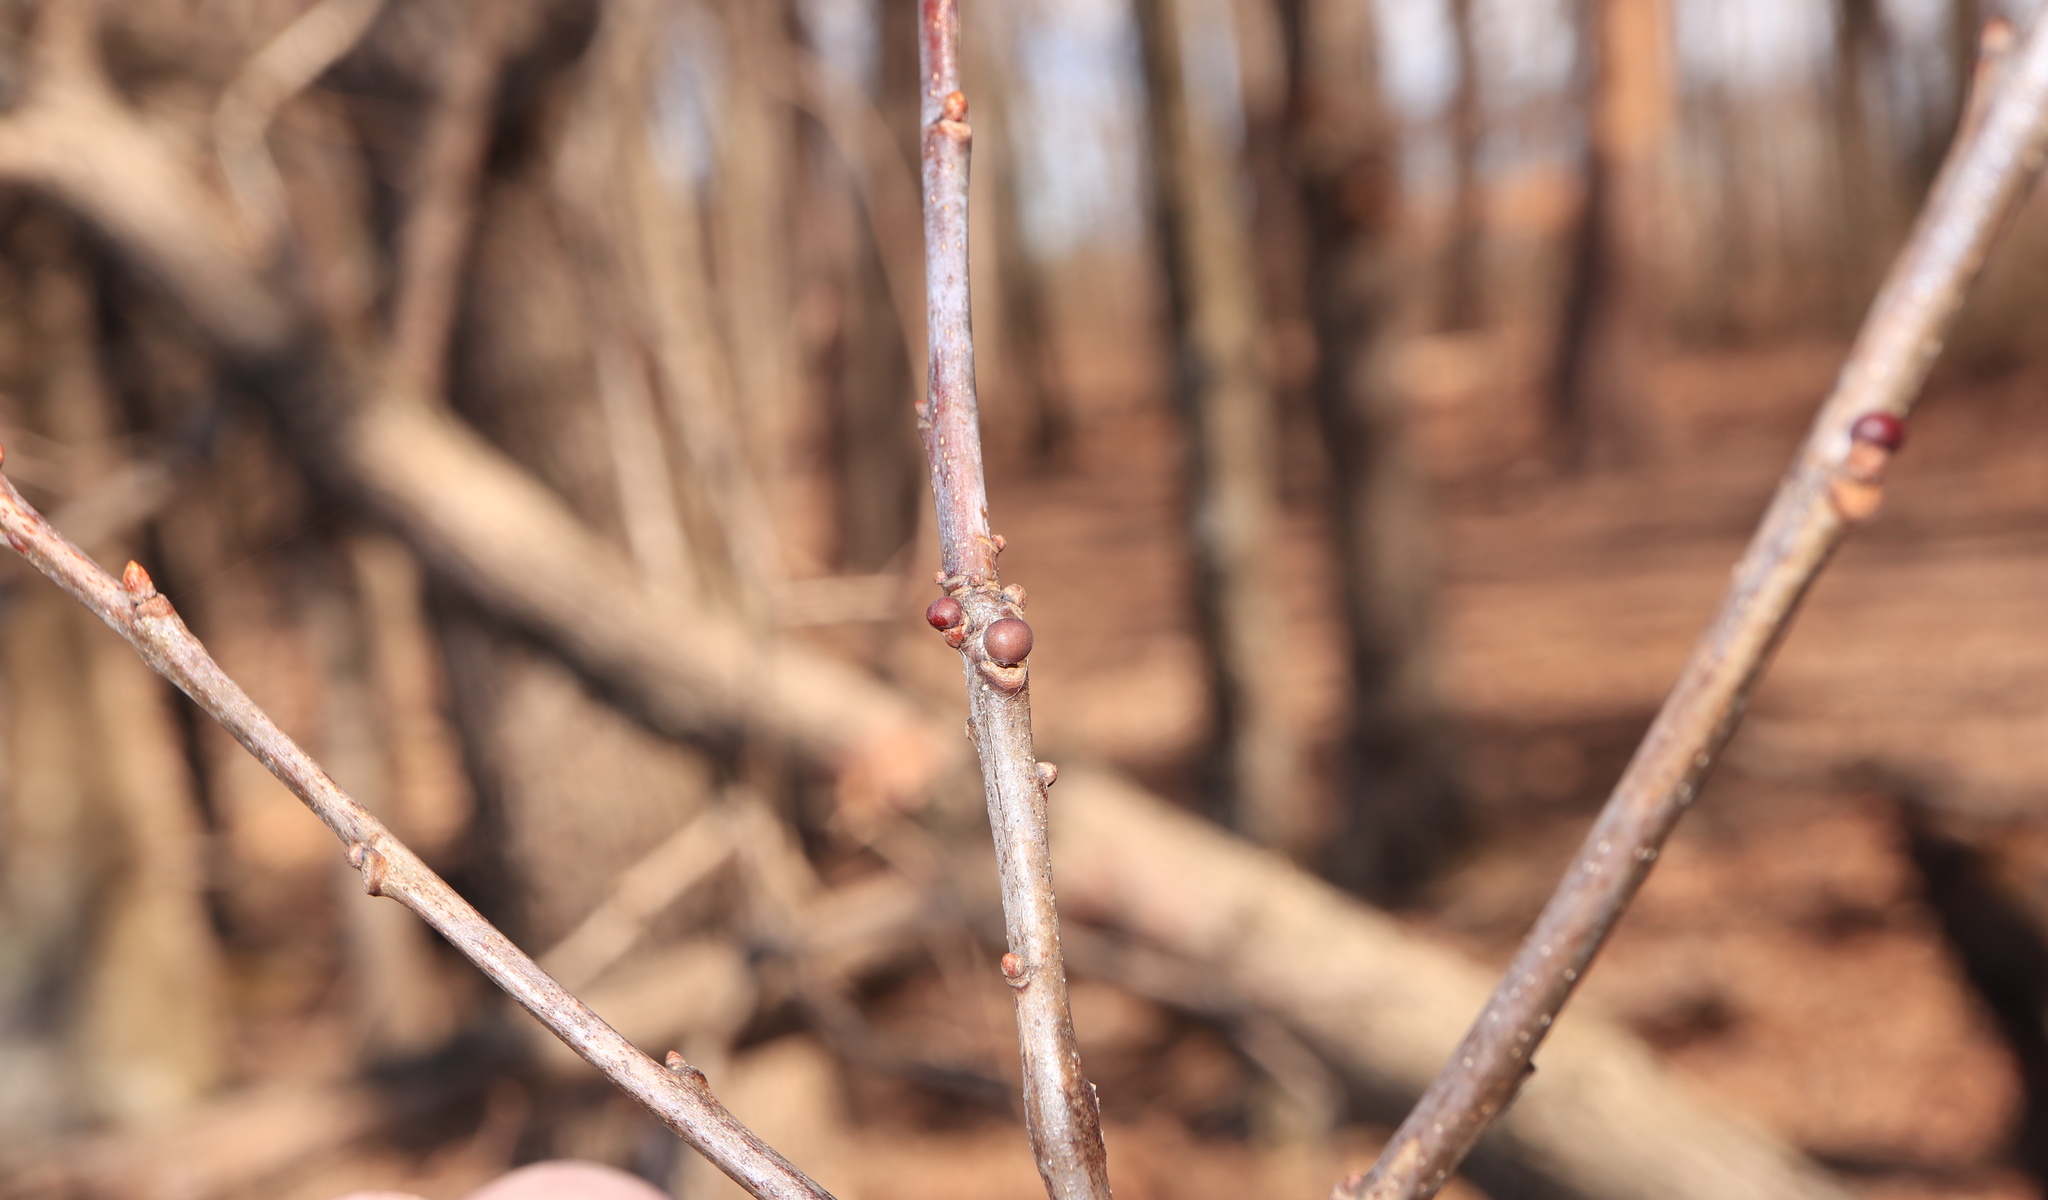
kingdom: Animalia
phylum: Arthropoda
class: Insecta
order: Hymenoptera
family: Cynipidae
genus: Neuroterus
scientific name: Neuroterus
